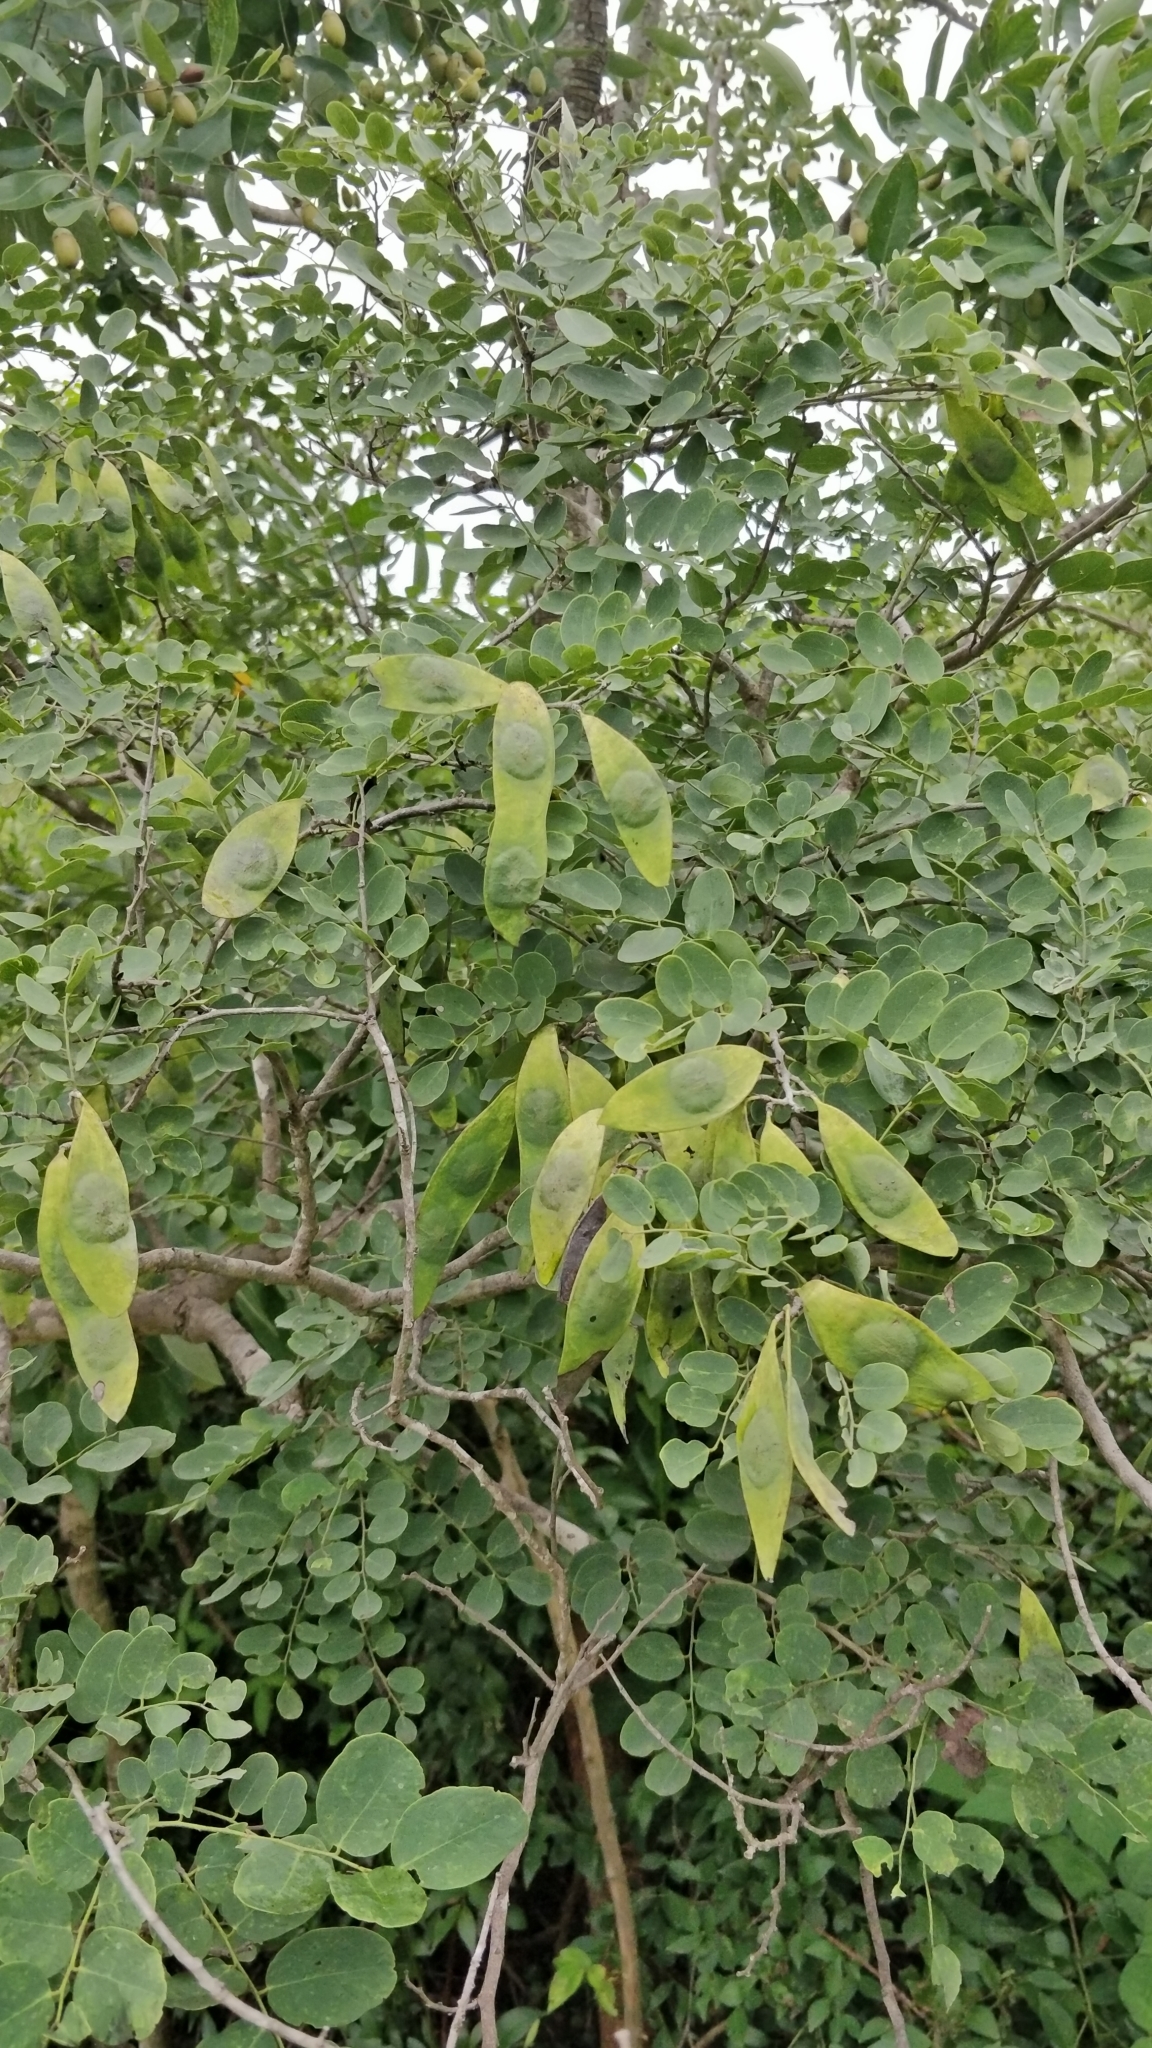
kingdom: Plantae
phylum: Tracheophyta
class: Magnoliopsida
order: Fabales
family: Fabaceae
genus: Dalbergia
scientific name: Dalbergia lanceolaria
